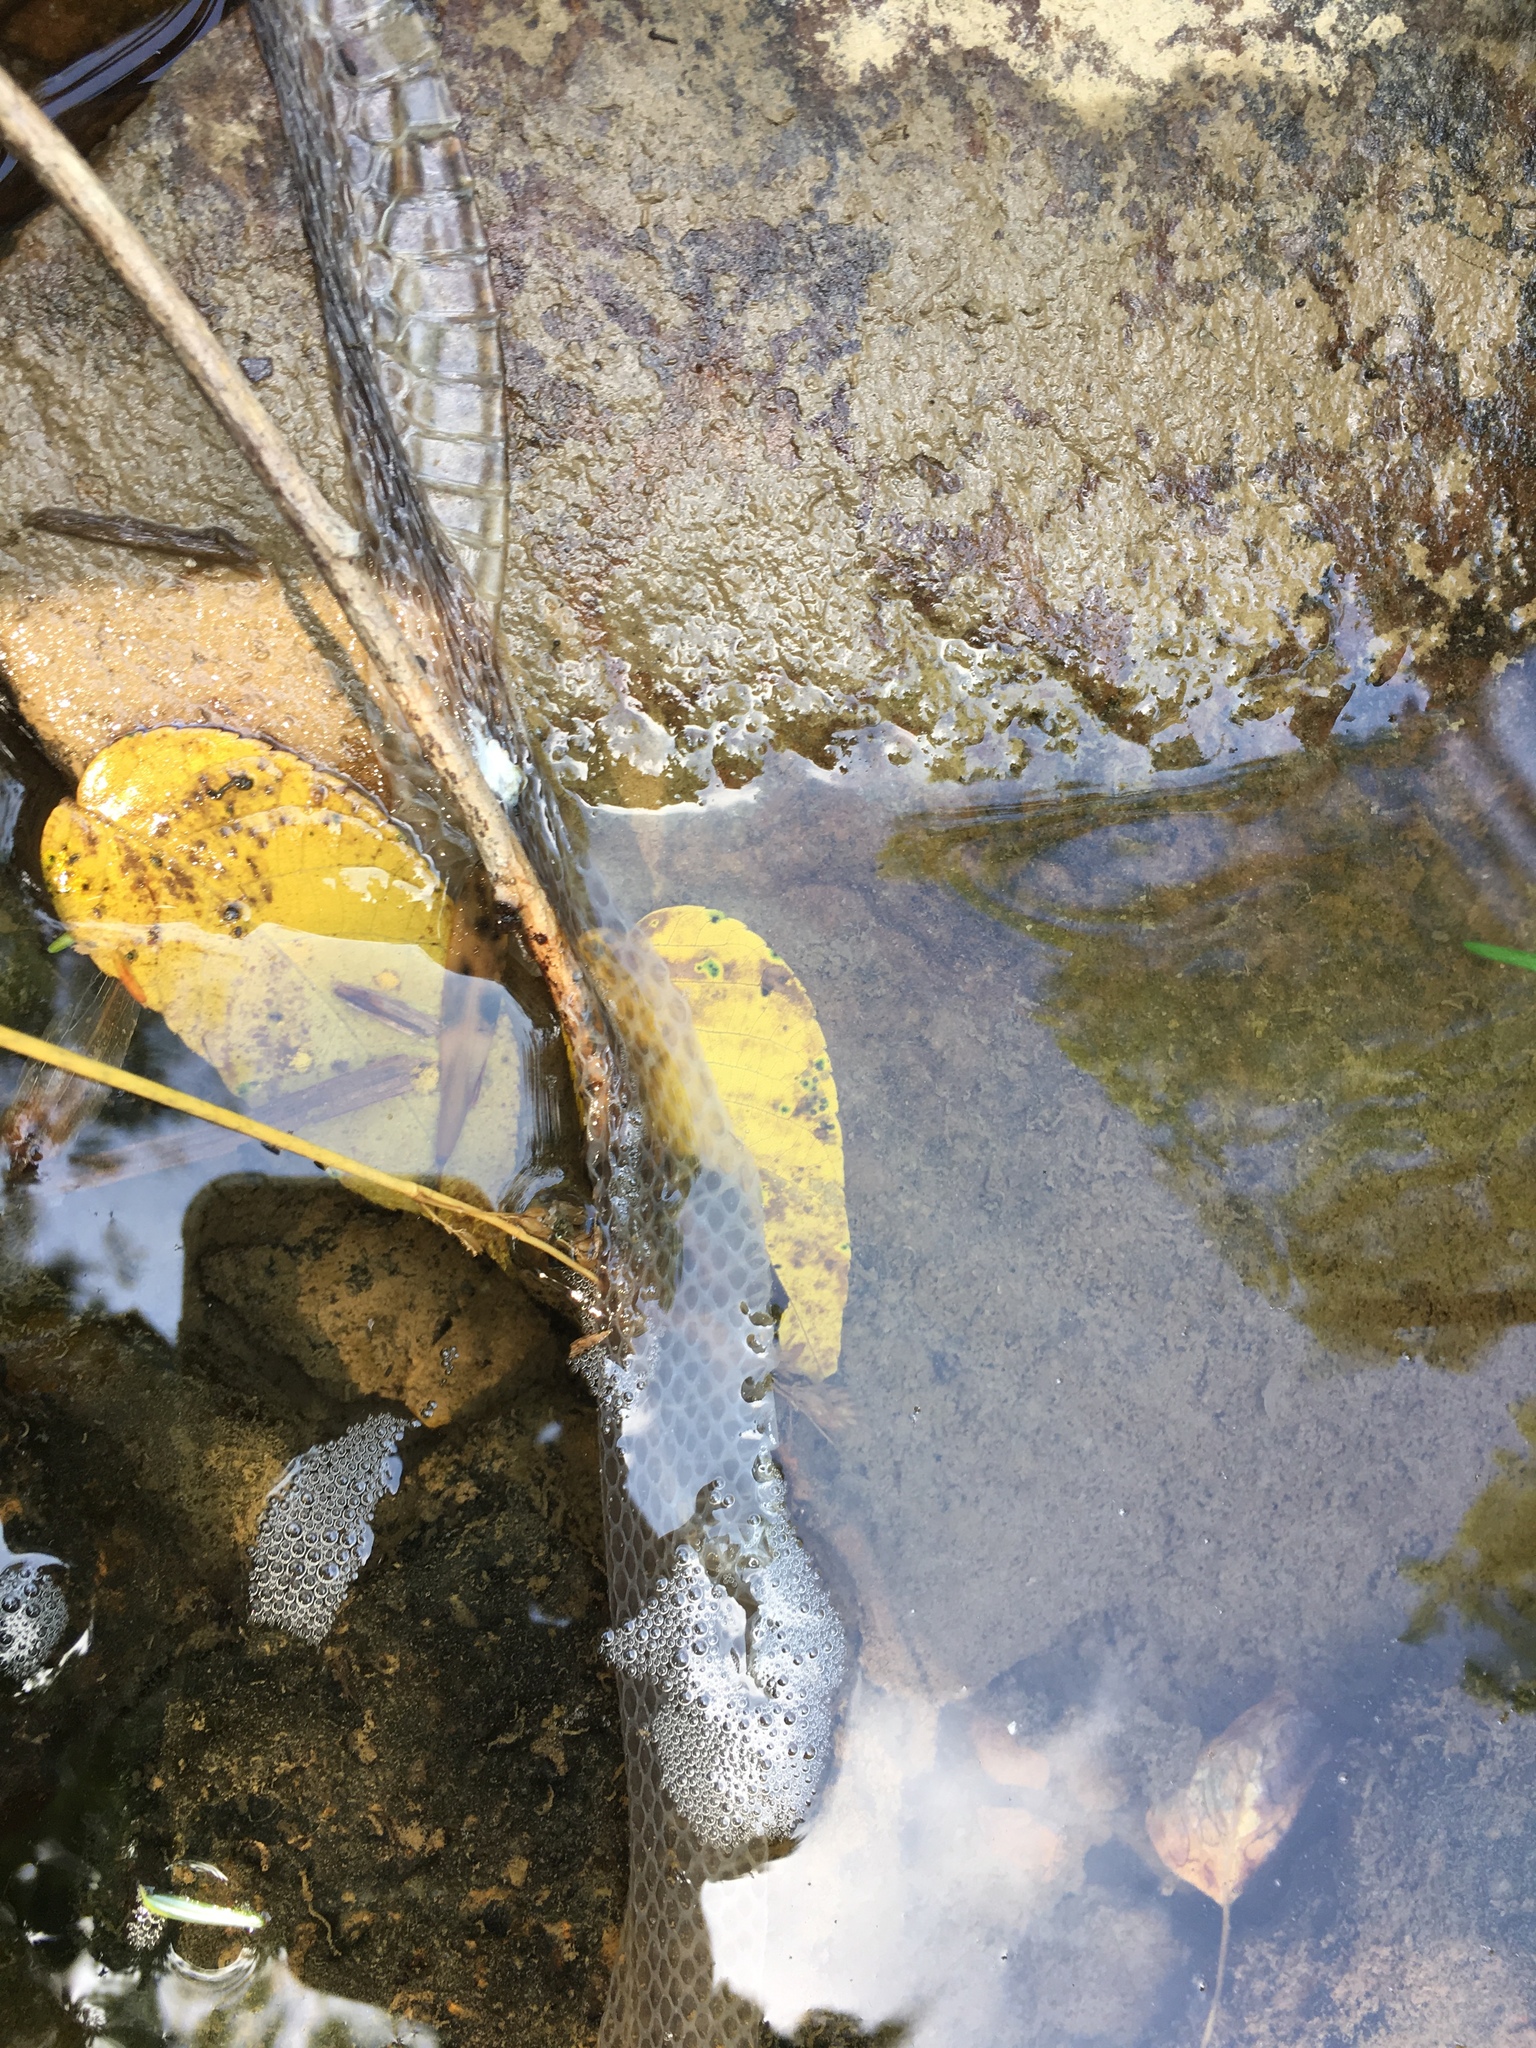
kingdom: Animalia
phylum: Chordata
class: Squamata
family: Colubridae
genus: Nerodia
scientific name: Nerodia sipedon
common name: Northern water snake
